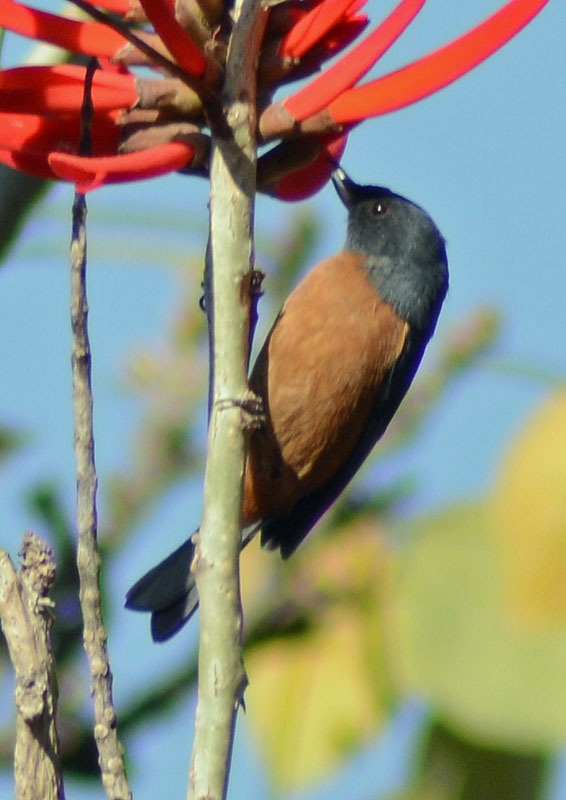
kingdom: Animalia
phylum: Chordata
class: Aves
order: Passeriformes
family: Thraupidae
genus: Diglossa
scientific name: Diglossa baritula
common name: Cinnamon-bellied flowerpiercer
